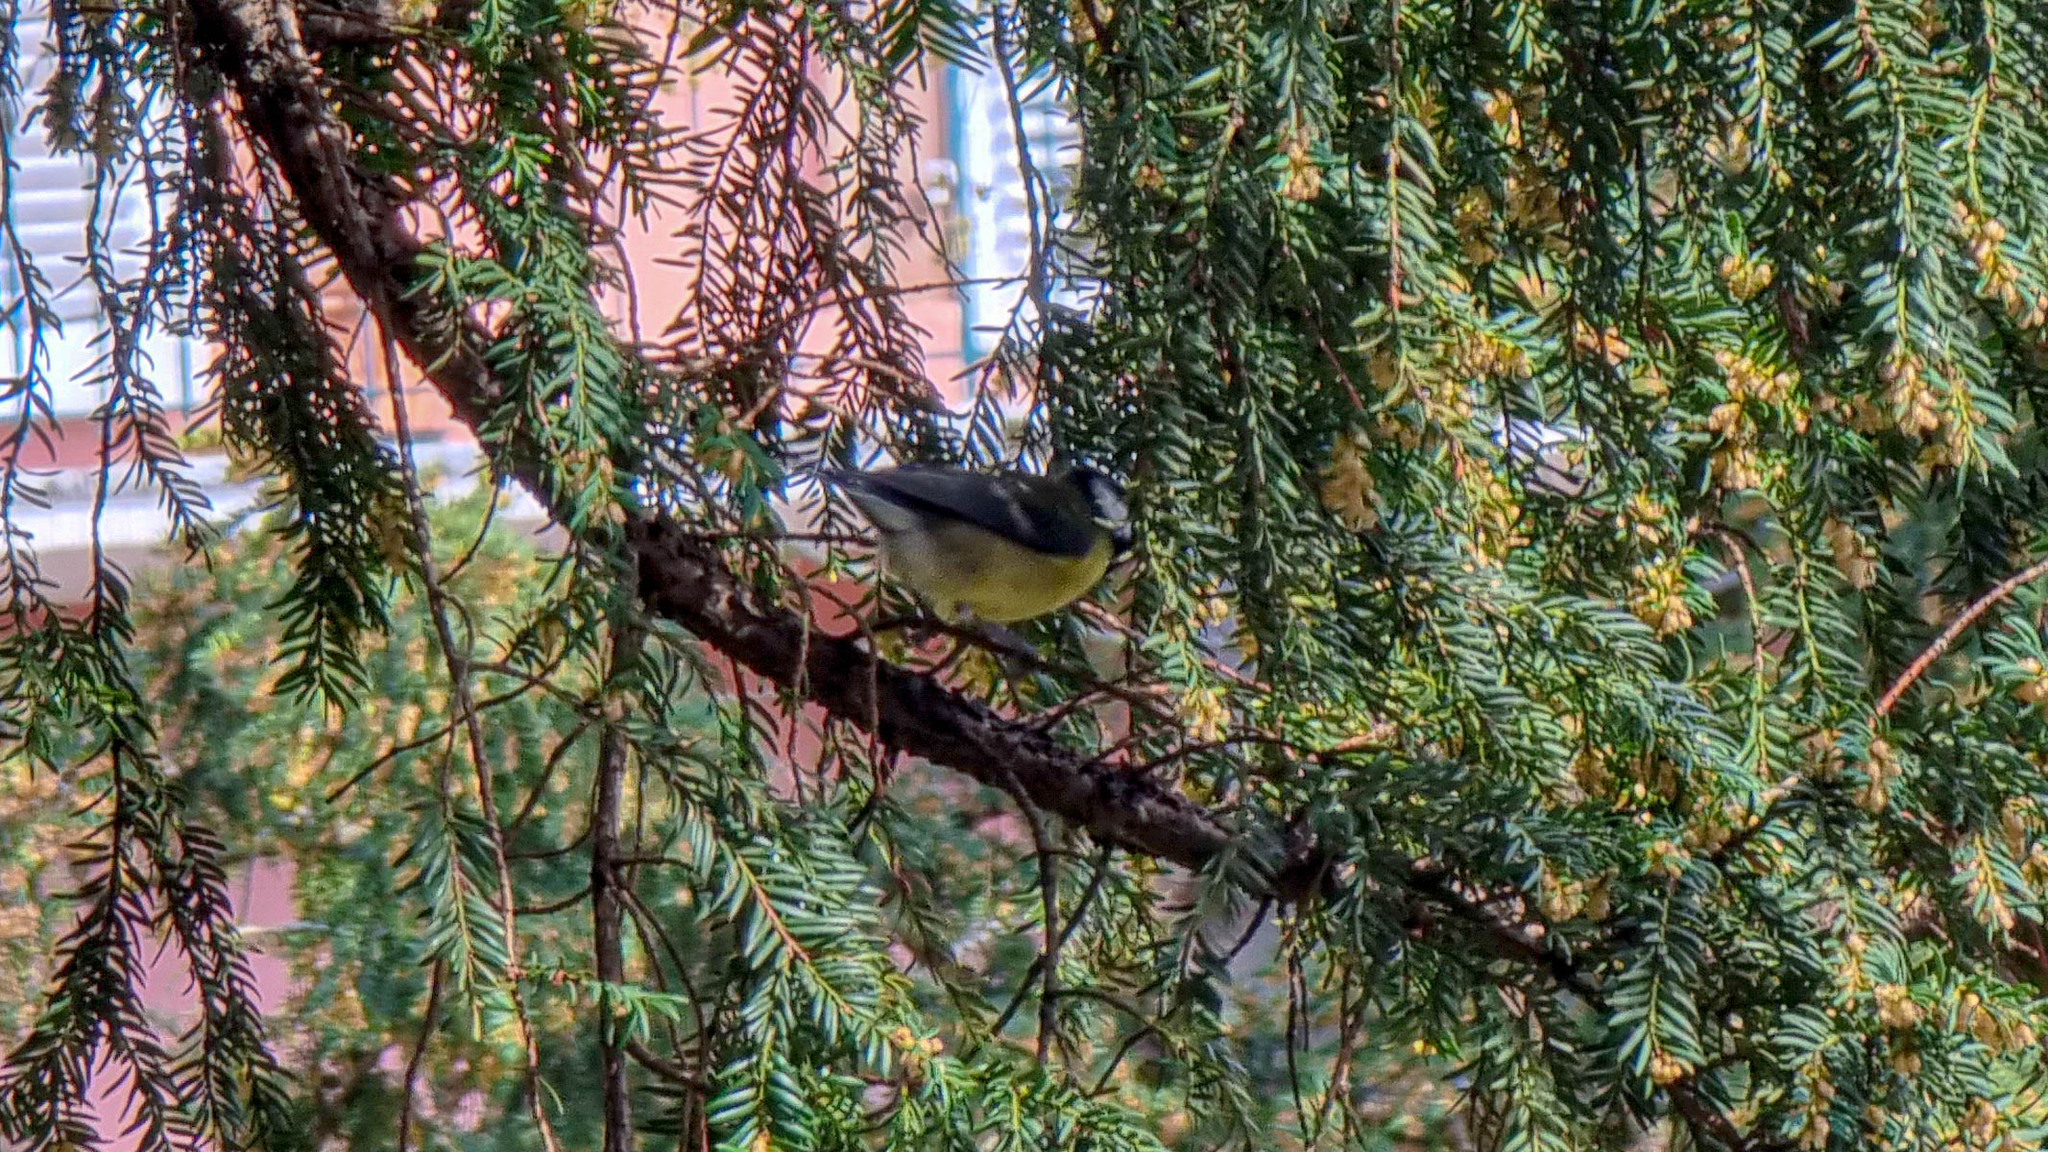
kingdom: Animalia
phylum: Chordata
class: Aves
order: Passeriformes
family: Paridae
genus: Parus
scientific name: Parus major
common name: Great tit
